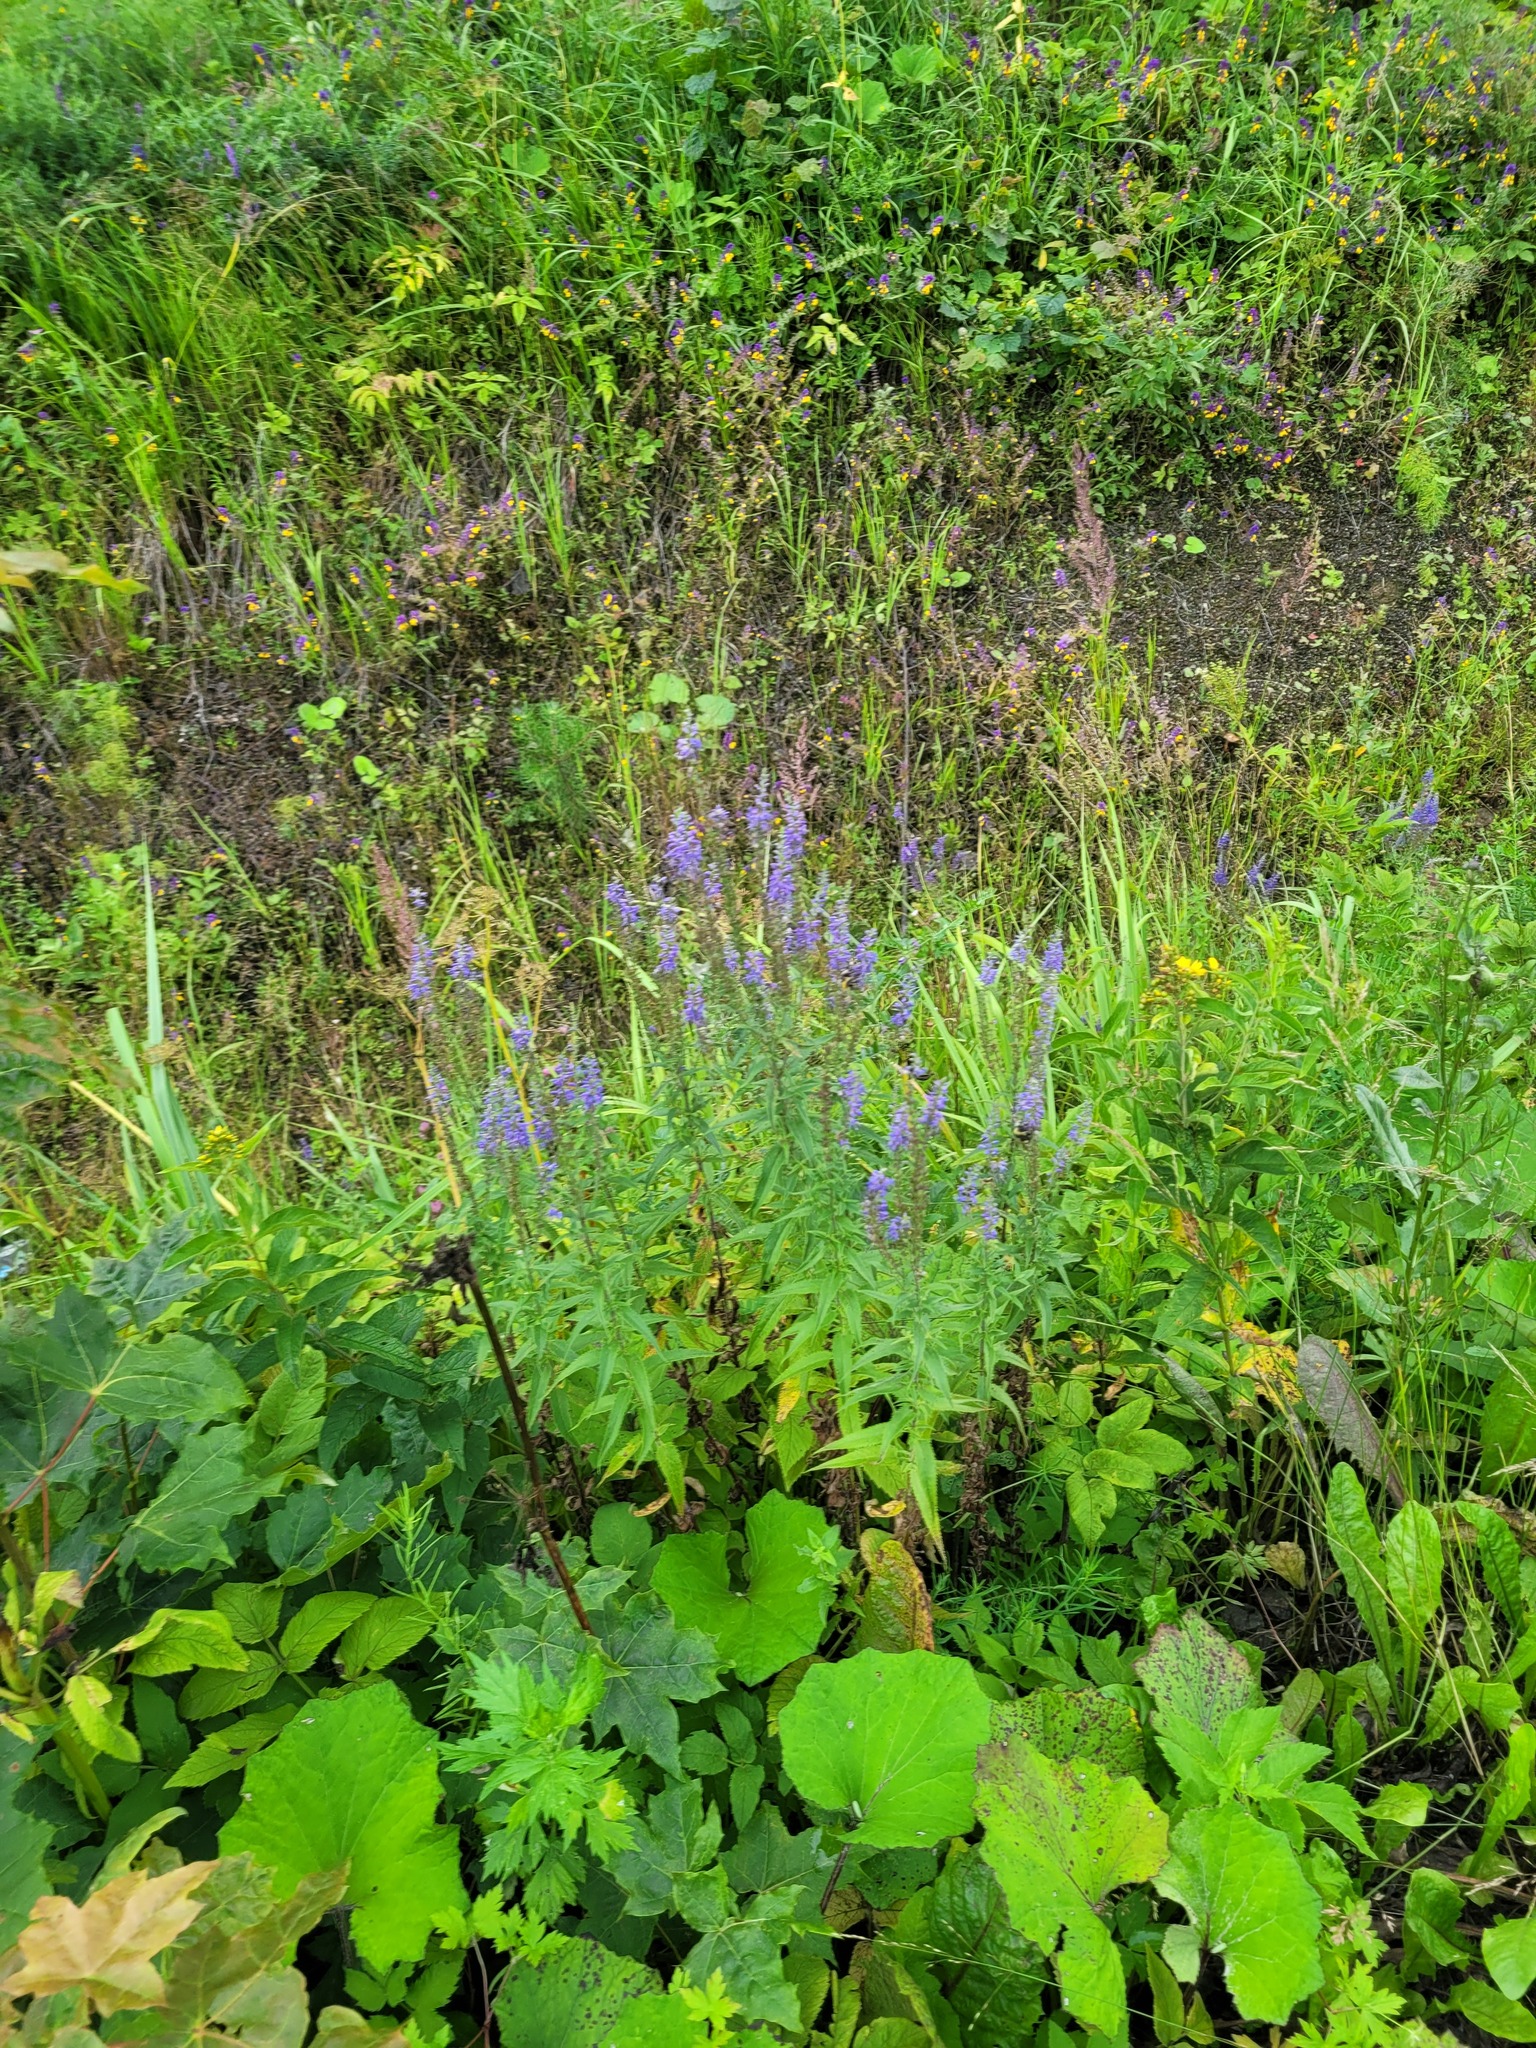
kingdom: Plantae
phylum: Tracheophyta
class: Magnoliopsida
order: Lamiales
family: Plantaginaceae
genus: Veronica
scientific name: Veronica longifolia
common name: Garden speedwell
